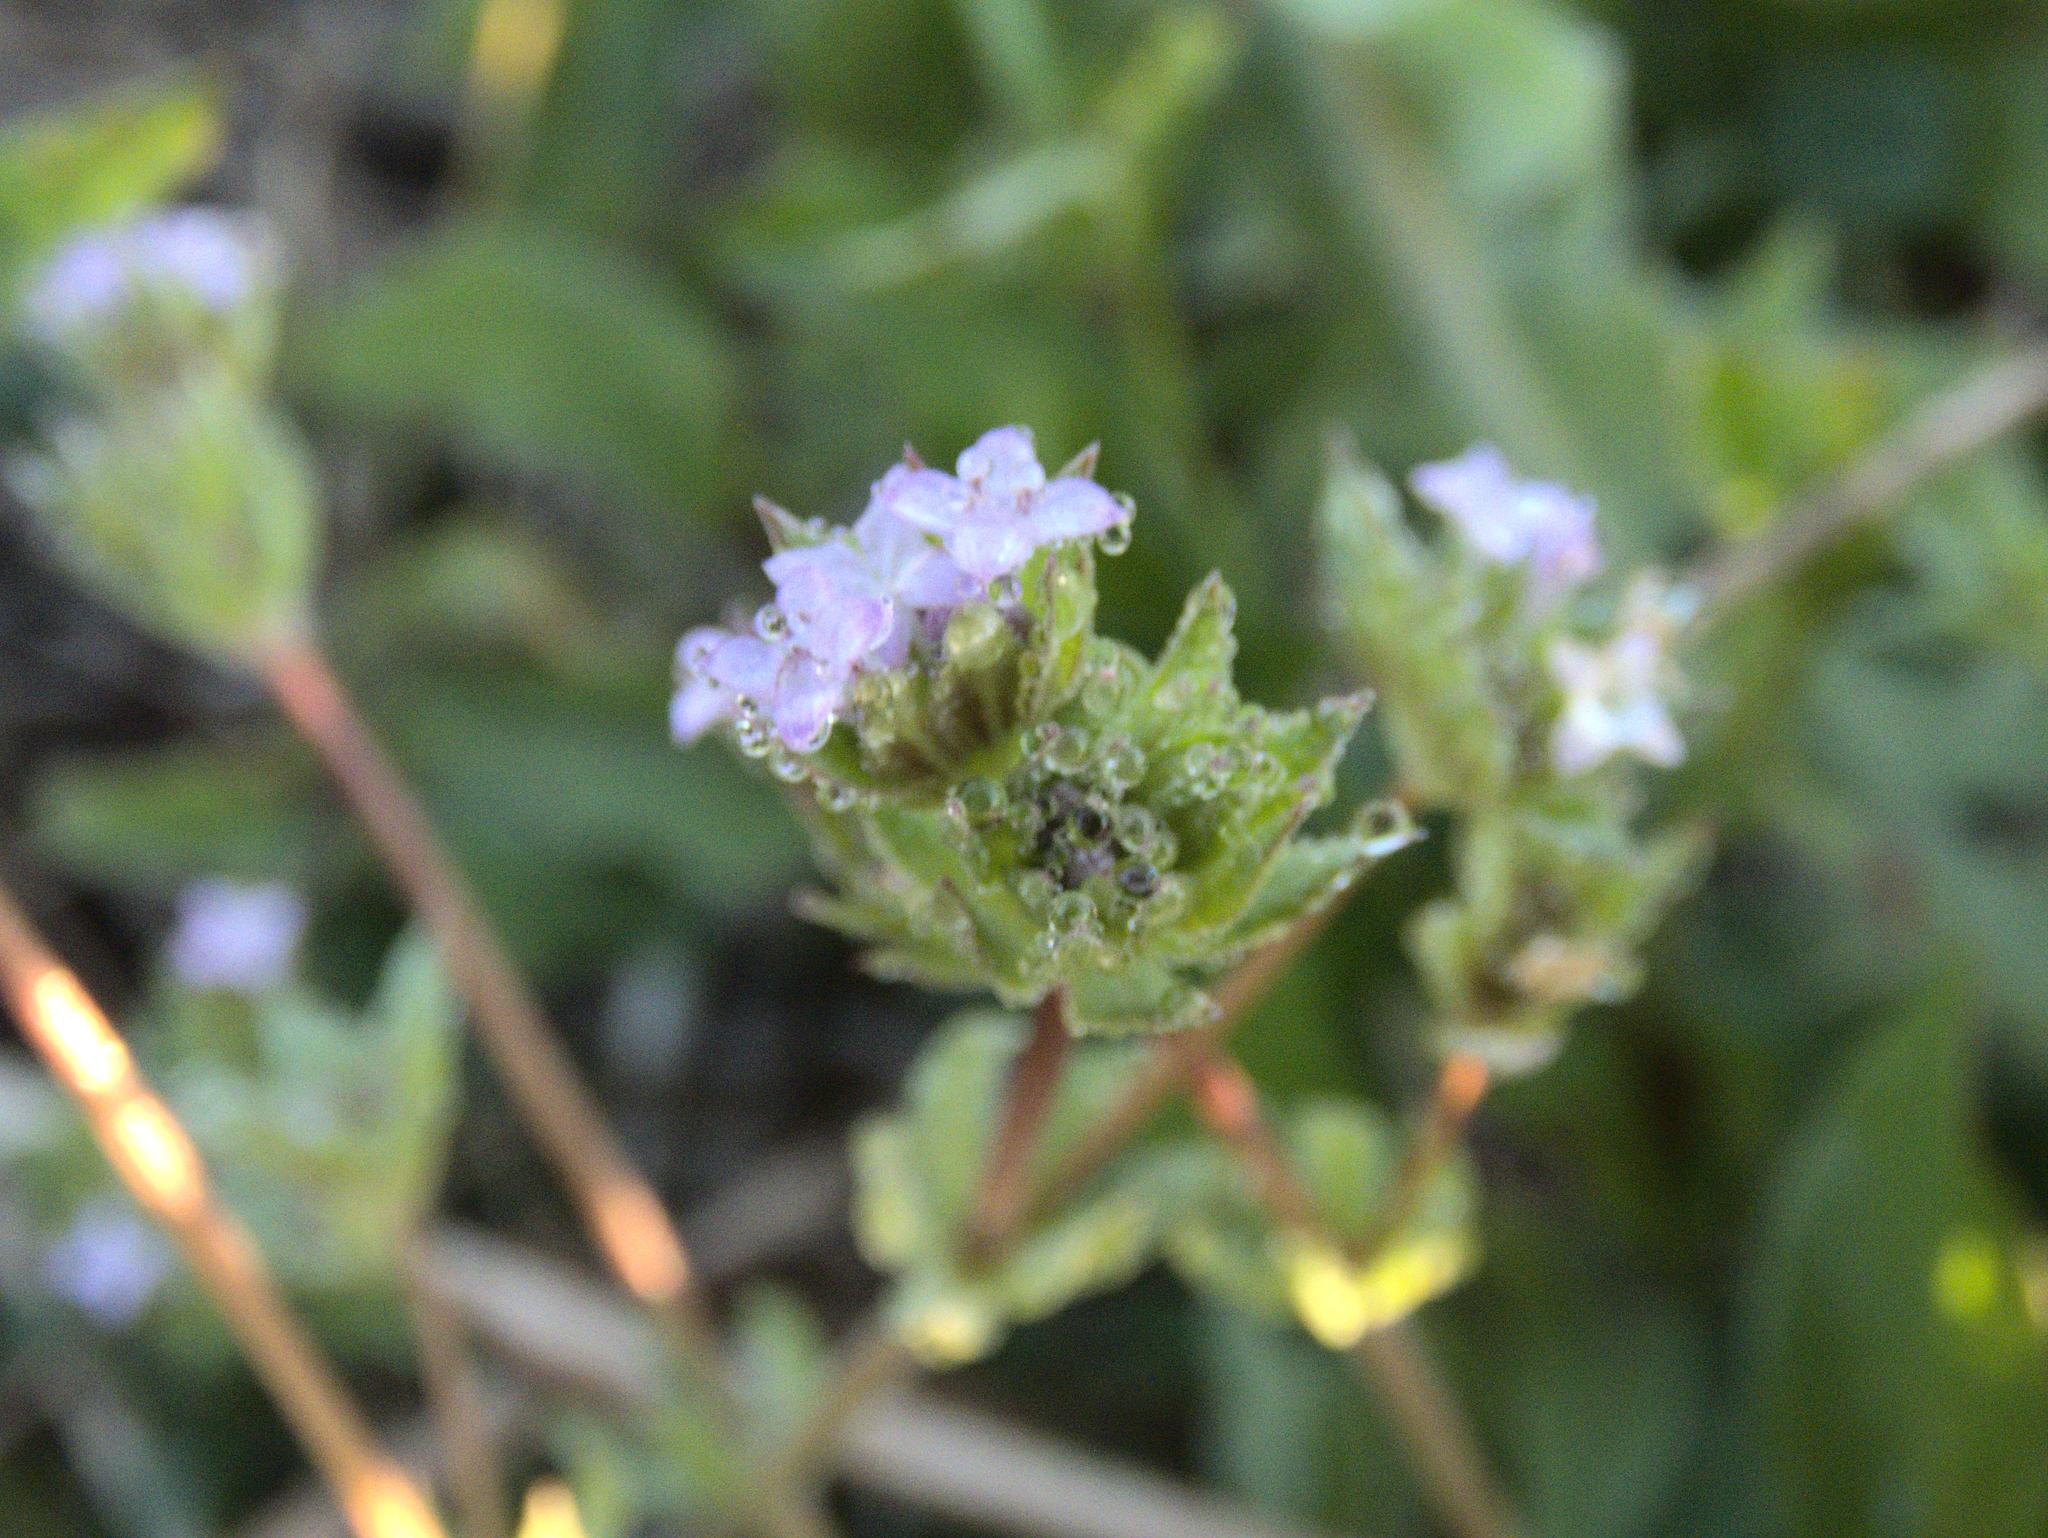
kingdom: Plantae
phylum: Tracheophyta
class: Magnoliopsida
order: Gentianales
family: Rubiaceae
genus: Sherardia
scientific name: Sherardia arvensis
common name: Field madder
